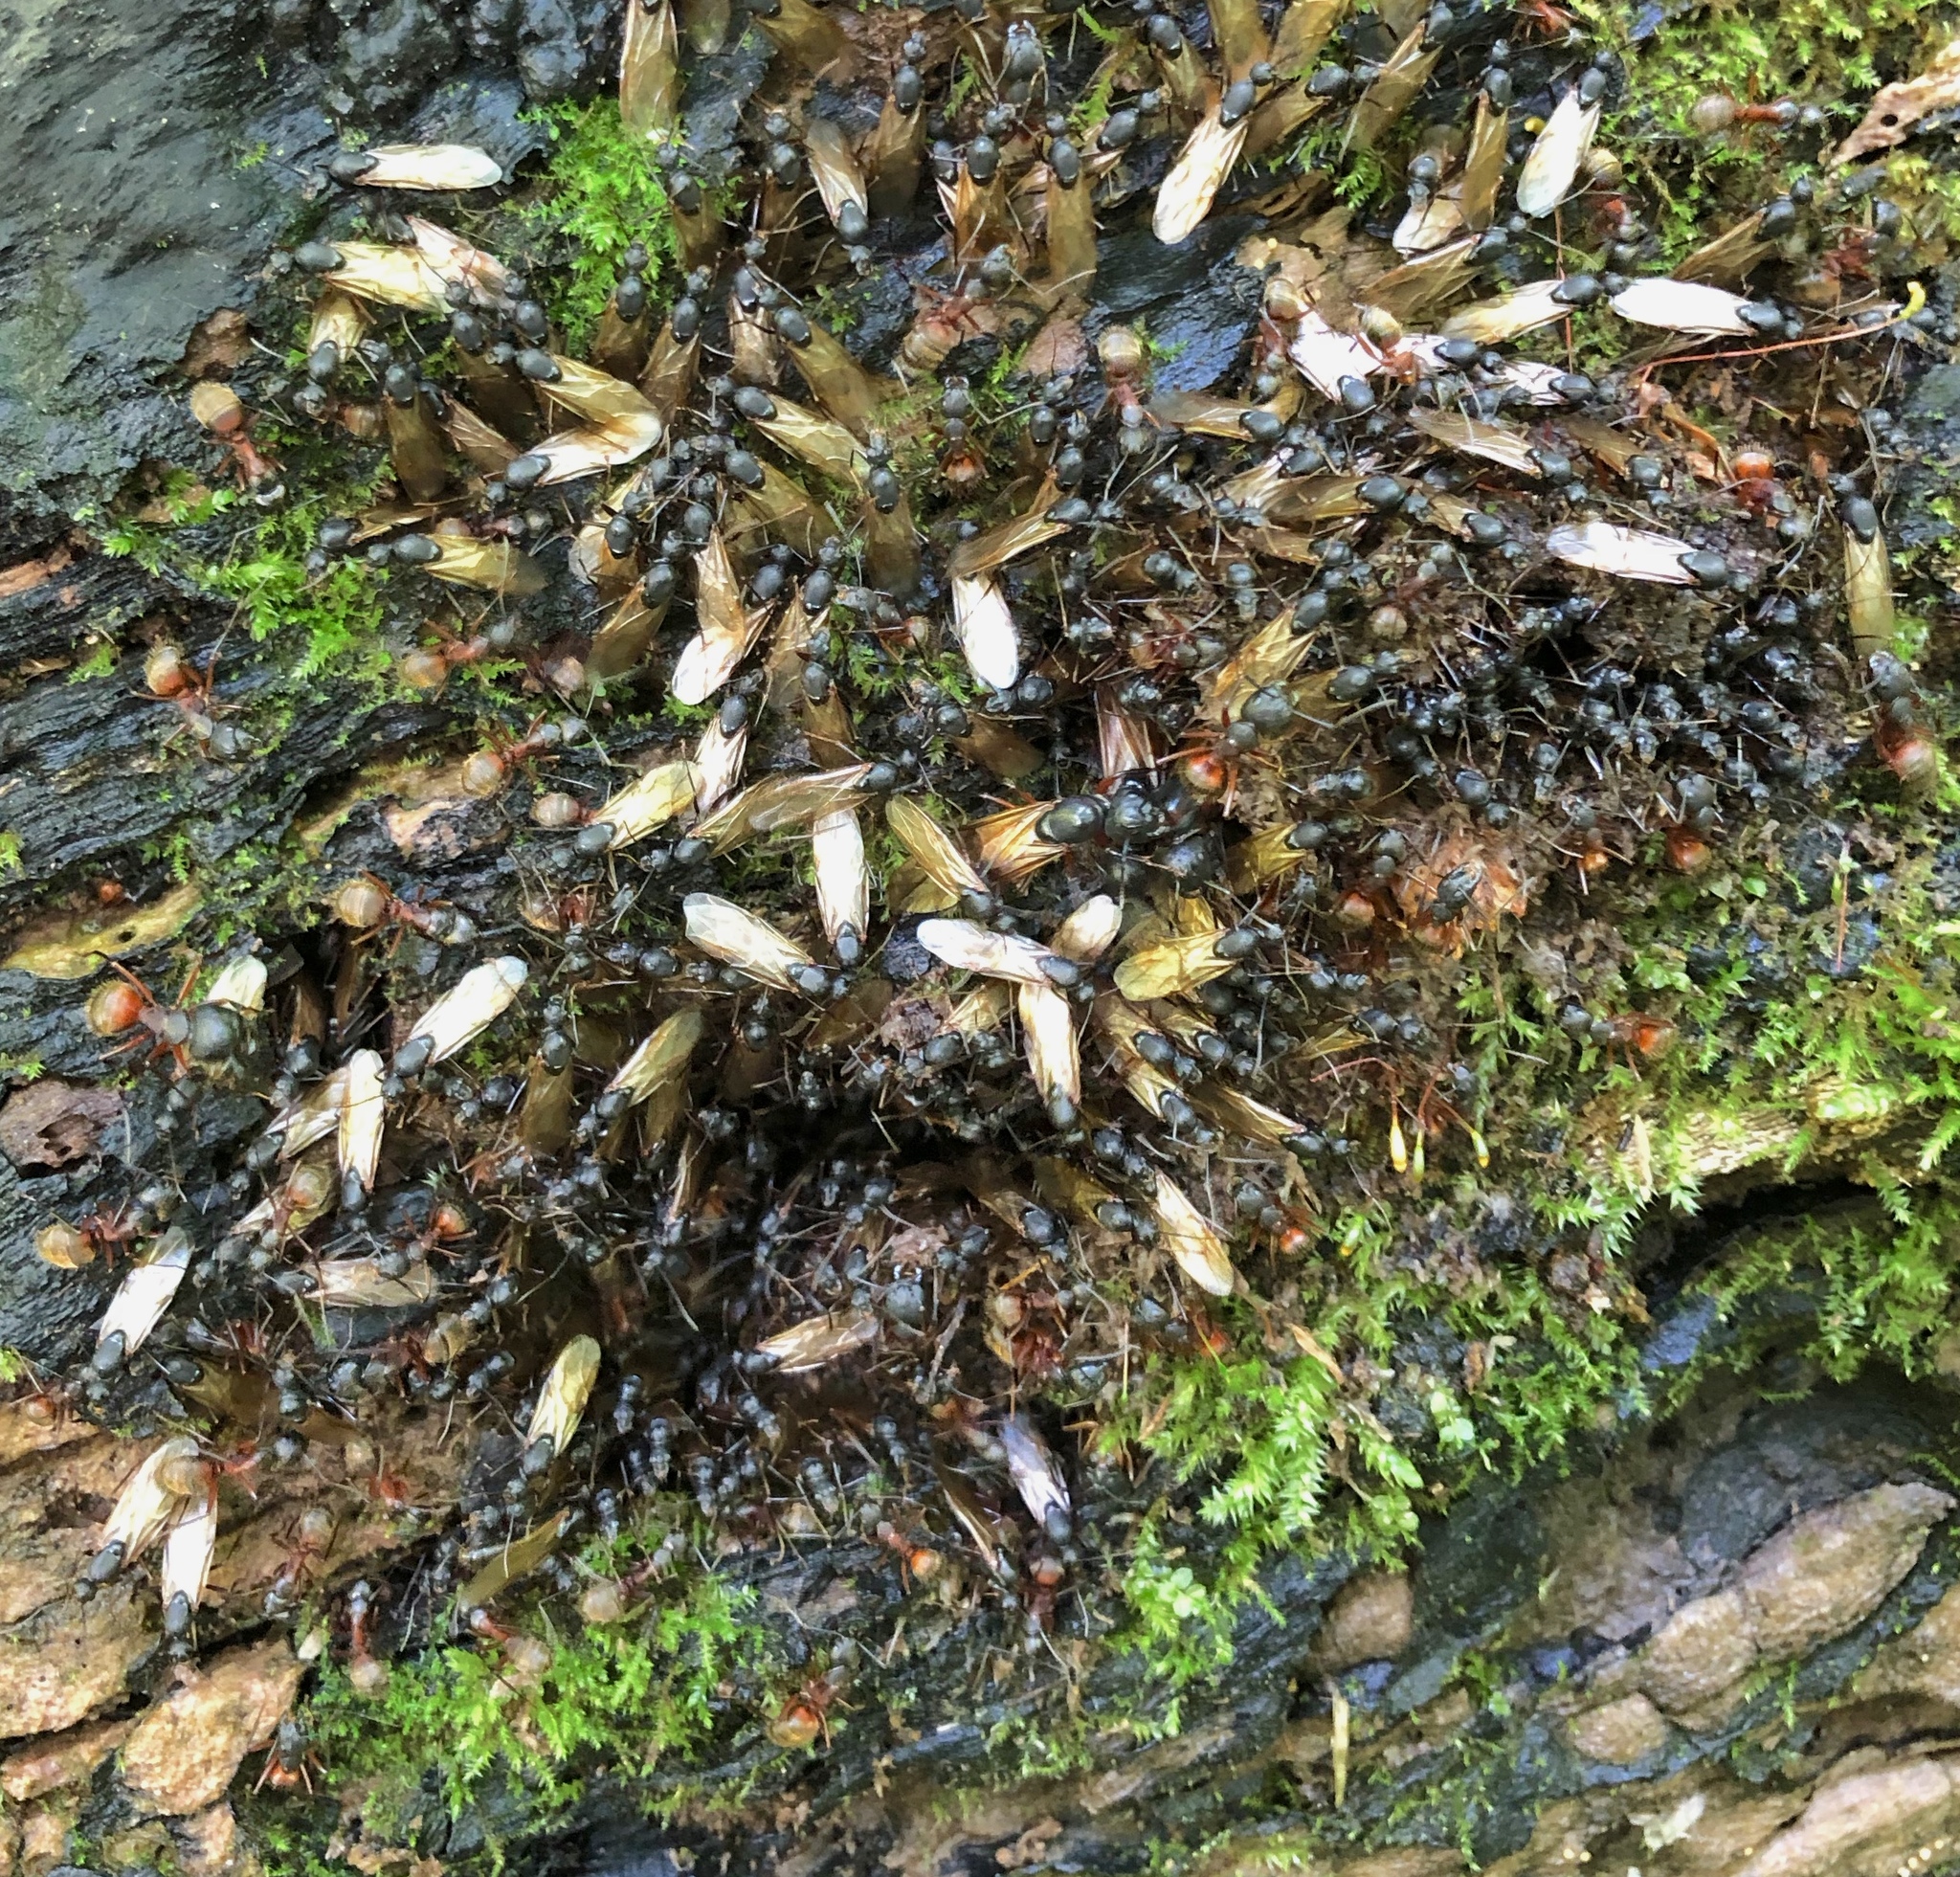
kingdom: Animalia
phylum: Arthropoda
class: Insecta
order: Hymenoptera
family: Formicidae
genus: Camponotus
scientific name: Camponotus chromaiodes
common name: Red carpenter ant
